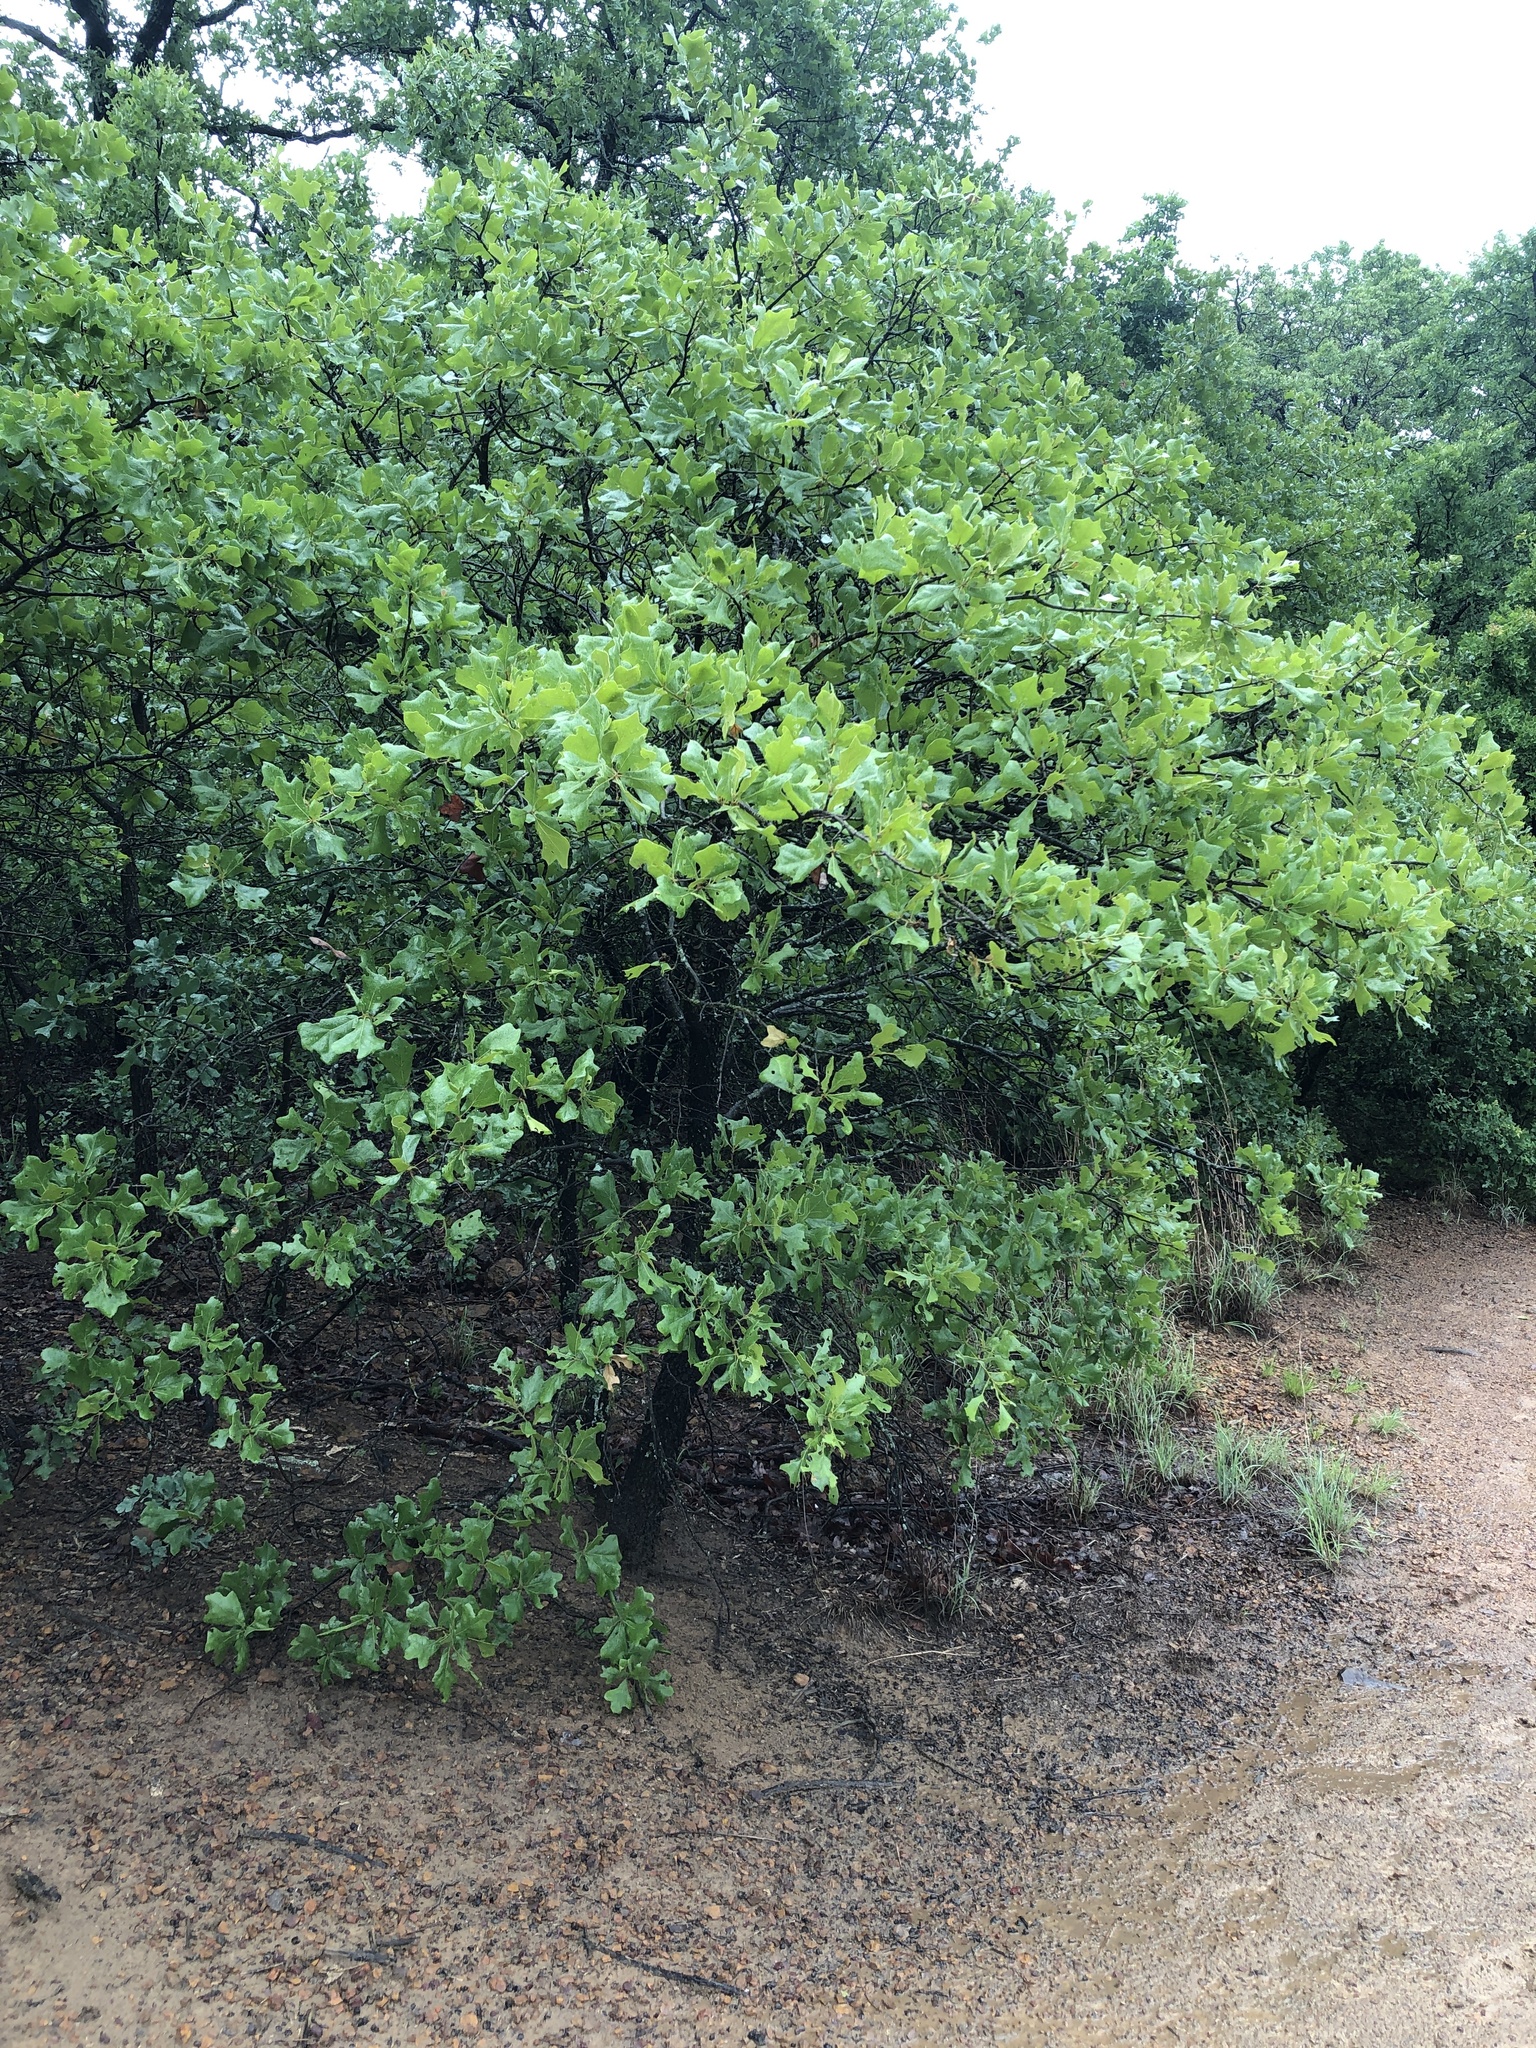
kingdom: Plantae
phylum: Tracheophyta
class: Magnoliopsida
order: Fagales
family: Fagaceae
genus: Quercus
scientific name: Quercus marilandica
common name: Blackjack oak
